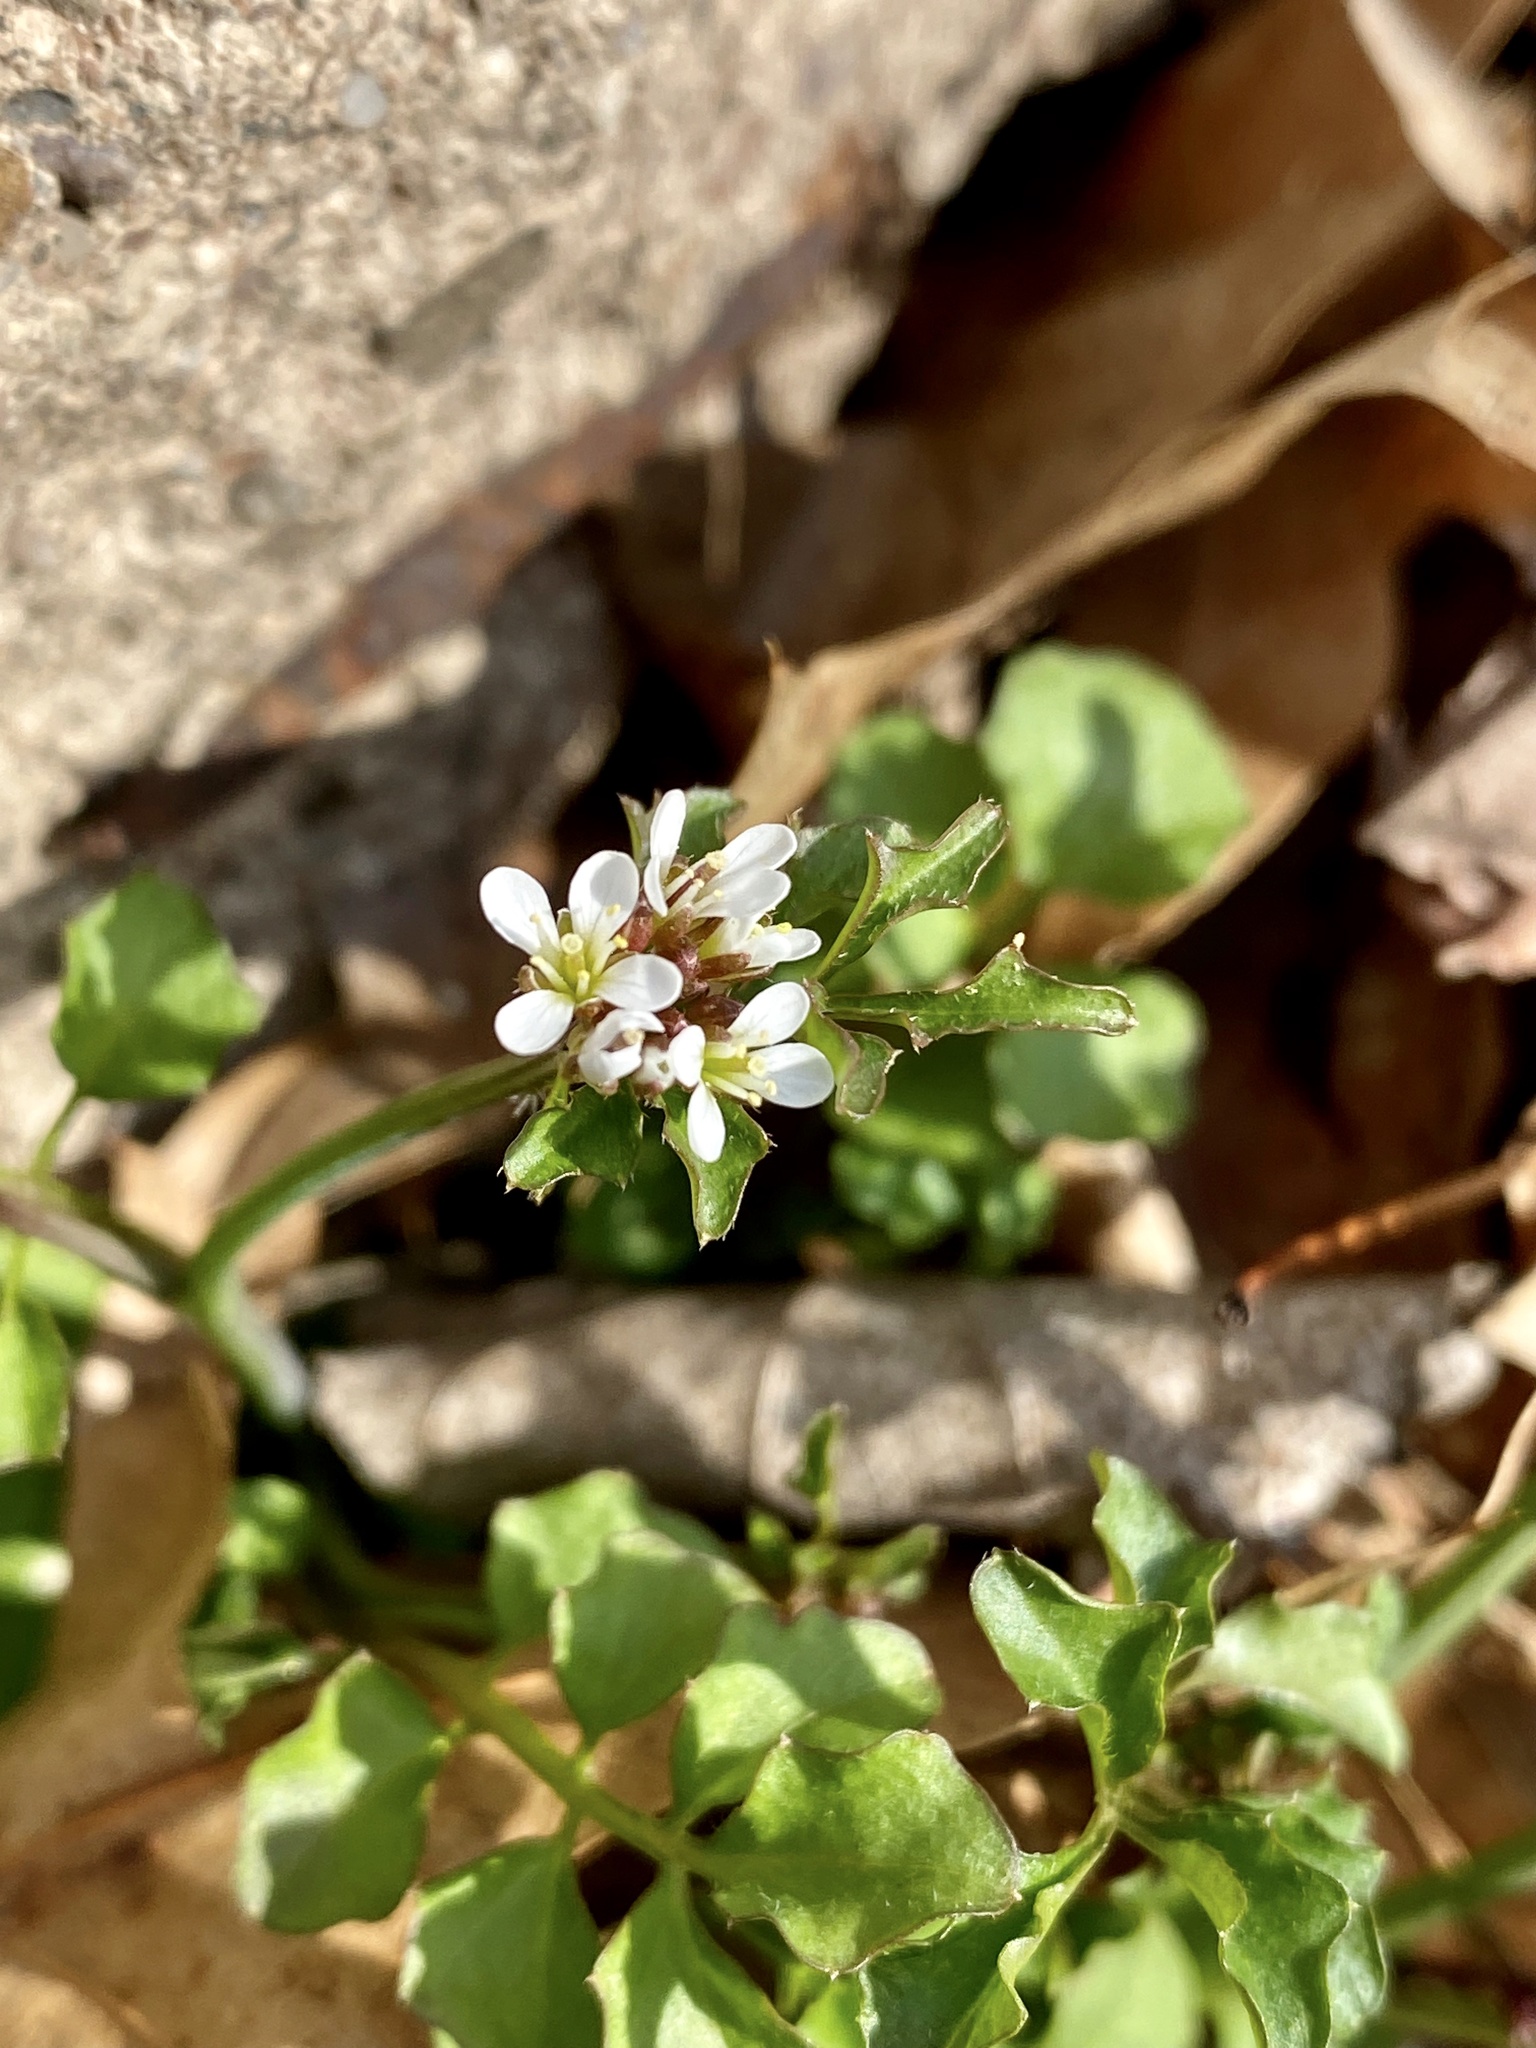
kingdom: Plantae
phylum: Tracheophyta
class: Magnoliopsida
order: Brassicales
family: Brassicaceae
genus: Cardamine
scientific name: Cardamine hirsuta
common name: Hairy bittercress
